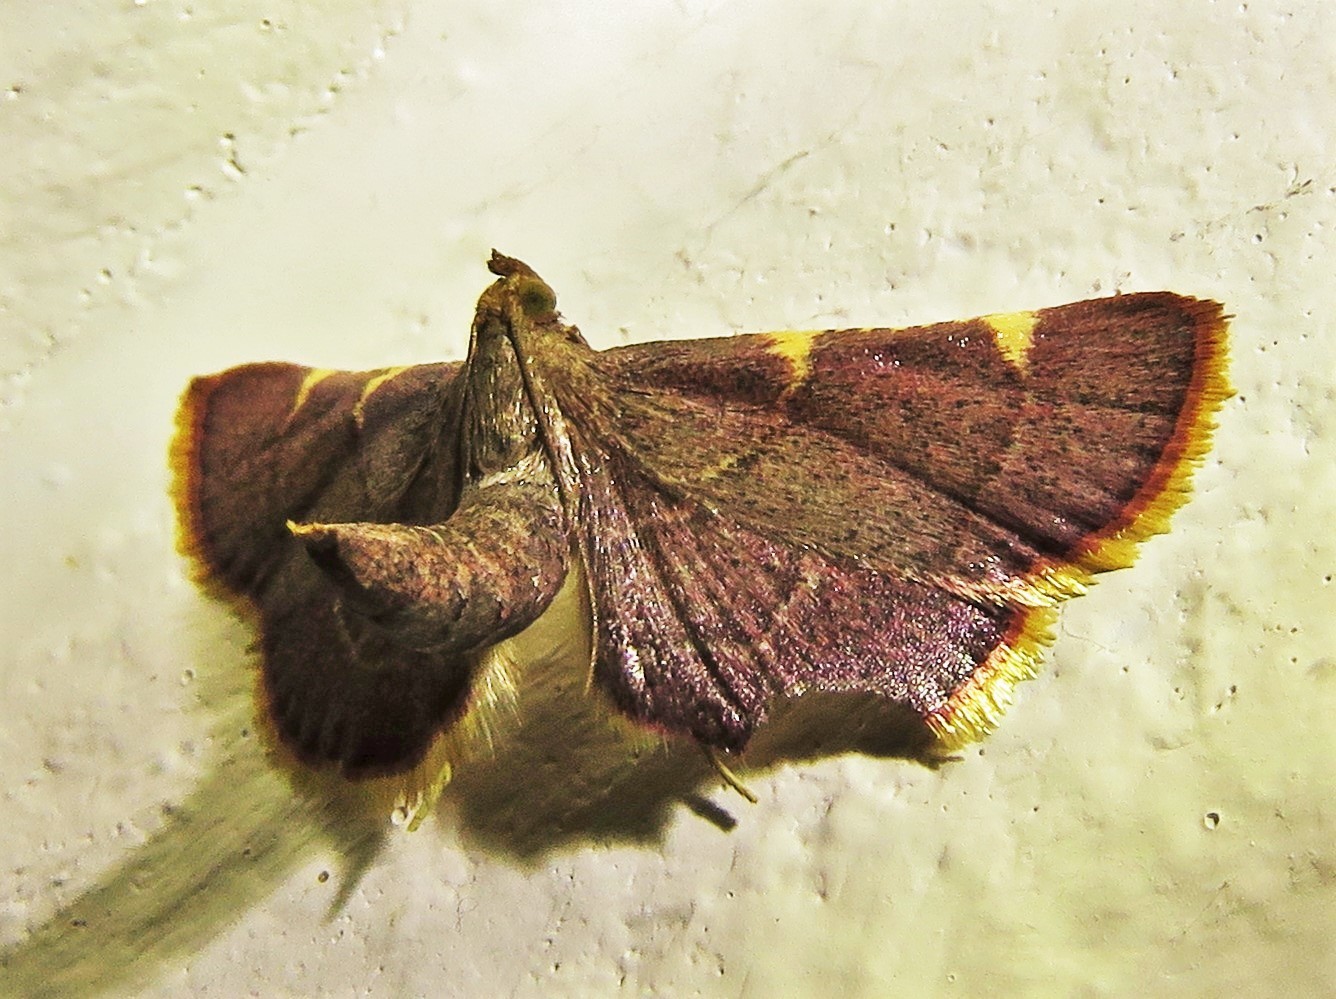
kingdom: Animalia
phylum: Arthropoda
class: Insecta
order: Lepidoptera
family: Pyralidae
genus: Hypsopygia
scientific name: Hypsopygia olinalis
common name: Yellow-fringed dolichomia moth
